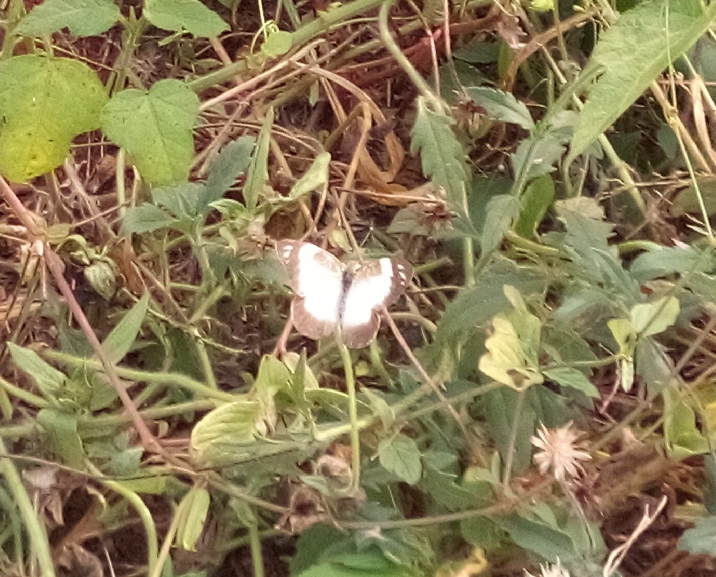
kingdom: Animalia
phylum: Arthropoda
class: Insecta
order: Lepidoptera
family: Pieridae
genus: Glutophrissa
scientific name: Glutophrissa epaphia
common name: African albatross
